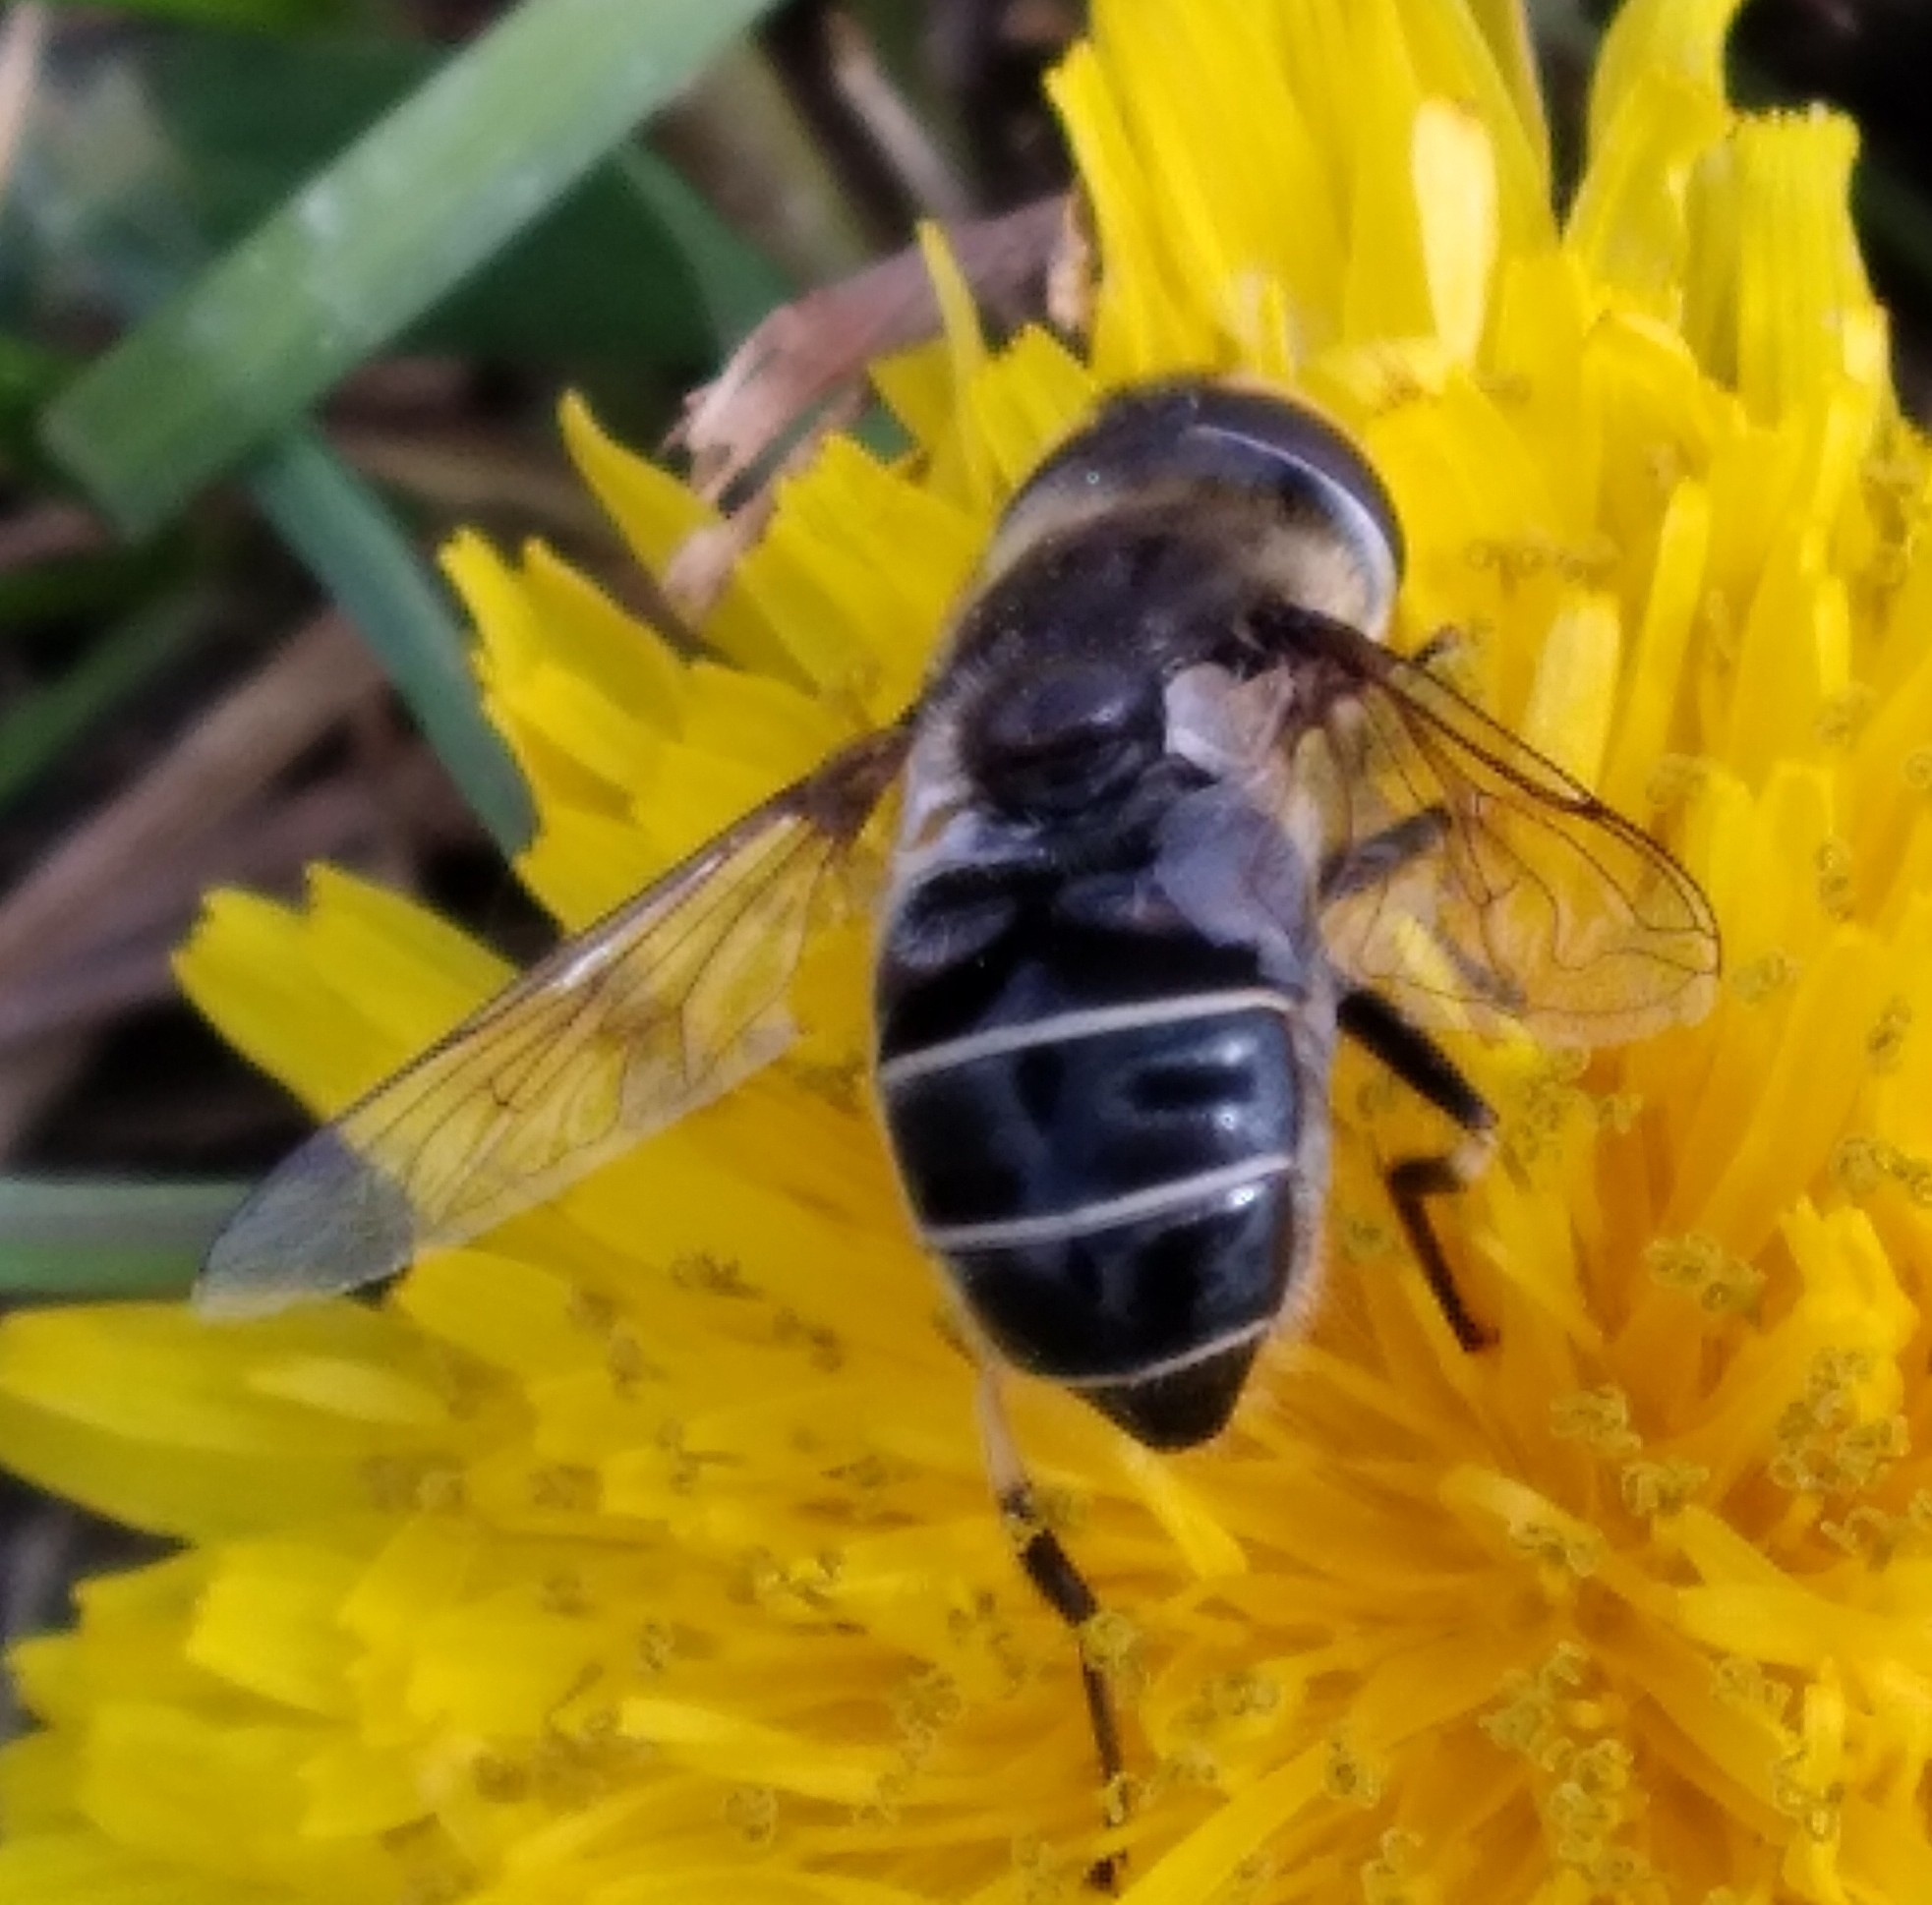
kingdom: Animalia
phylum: Arthropoda
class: Insecta
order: Diptera
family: Syrphidae
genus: Eristalis
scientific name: Eristalis dimidiata
